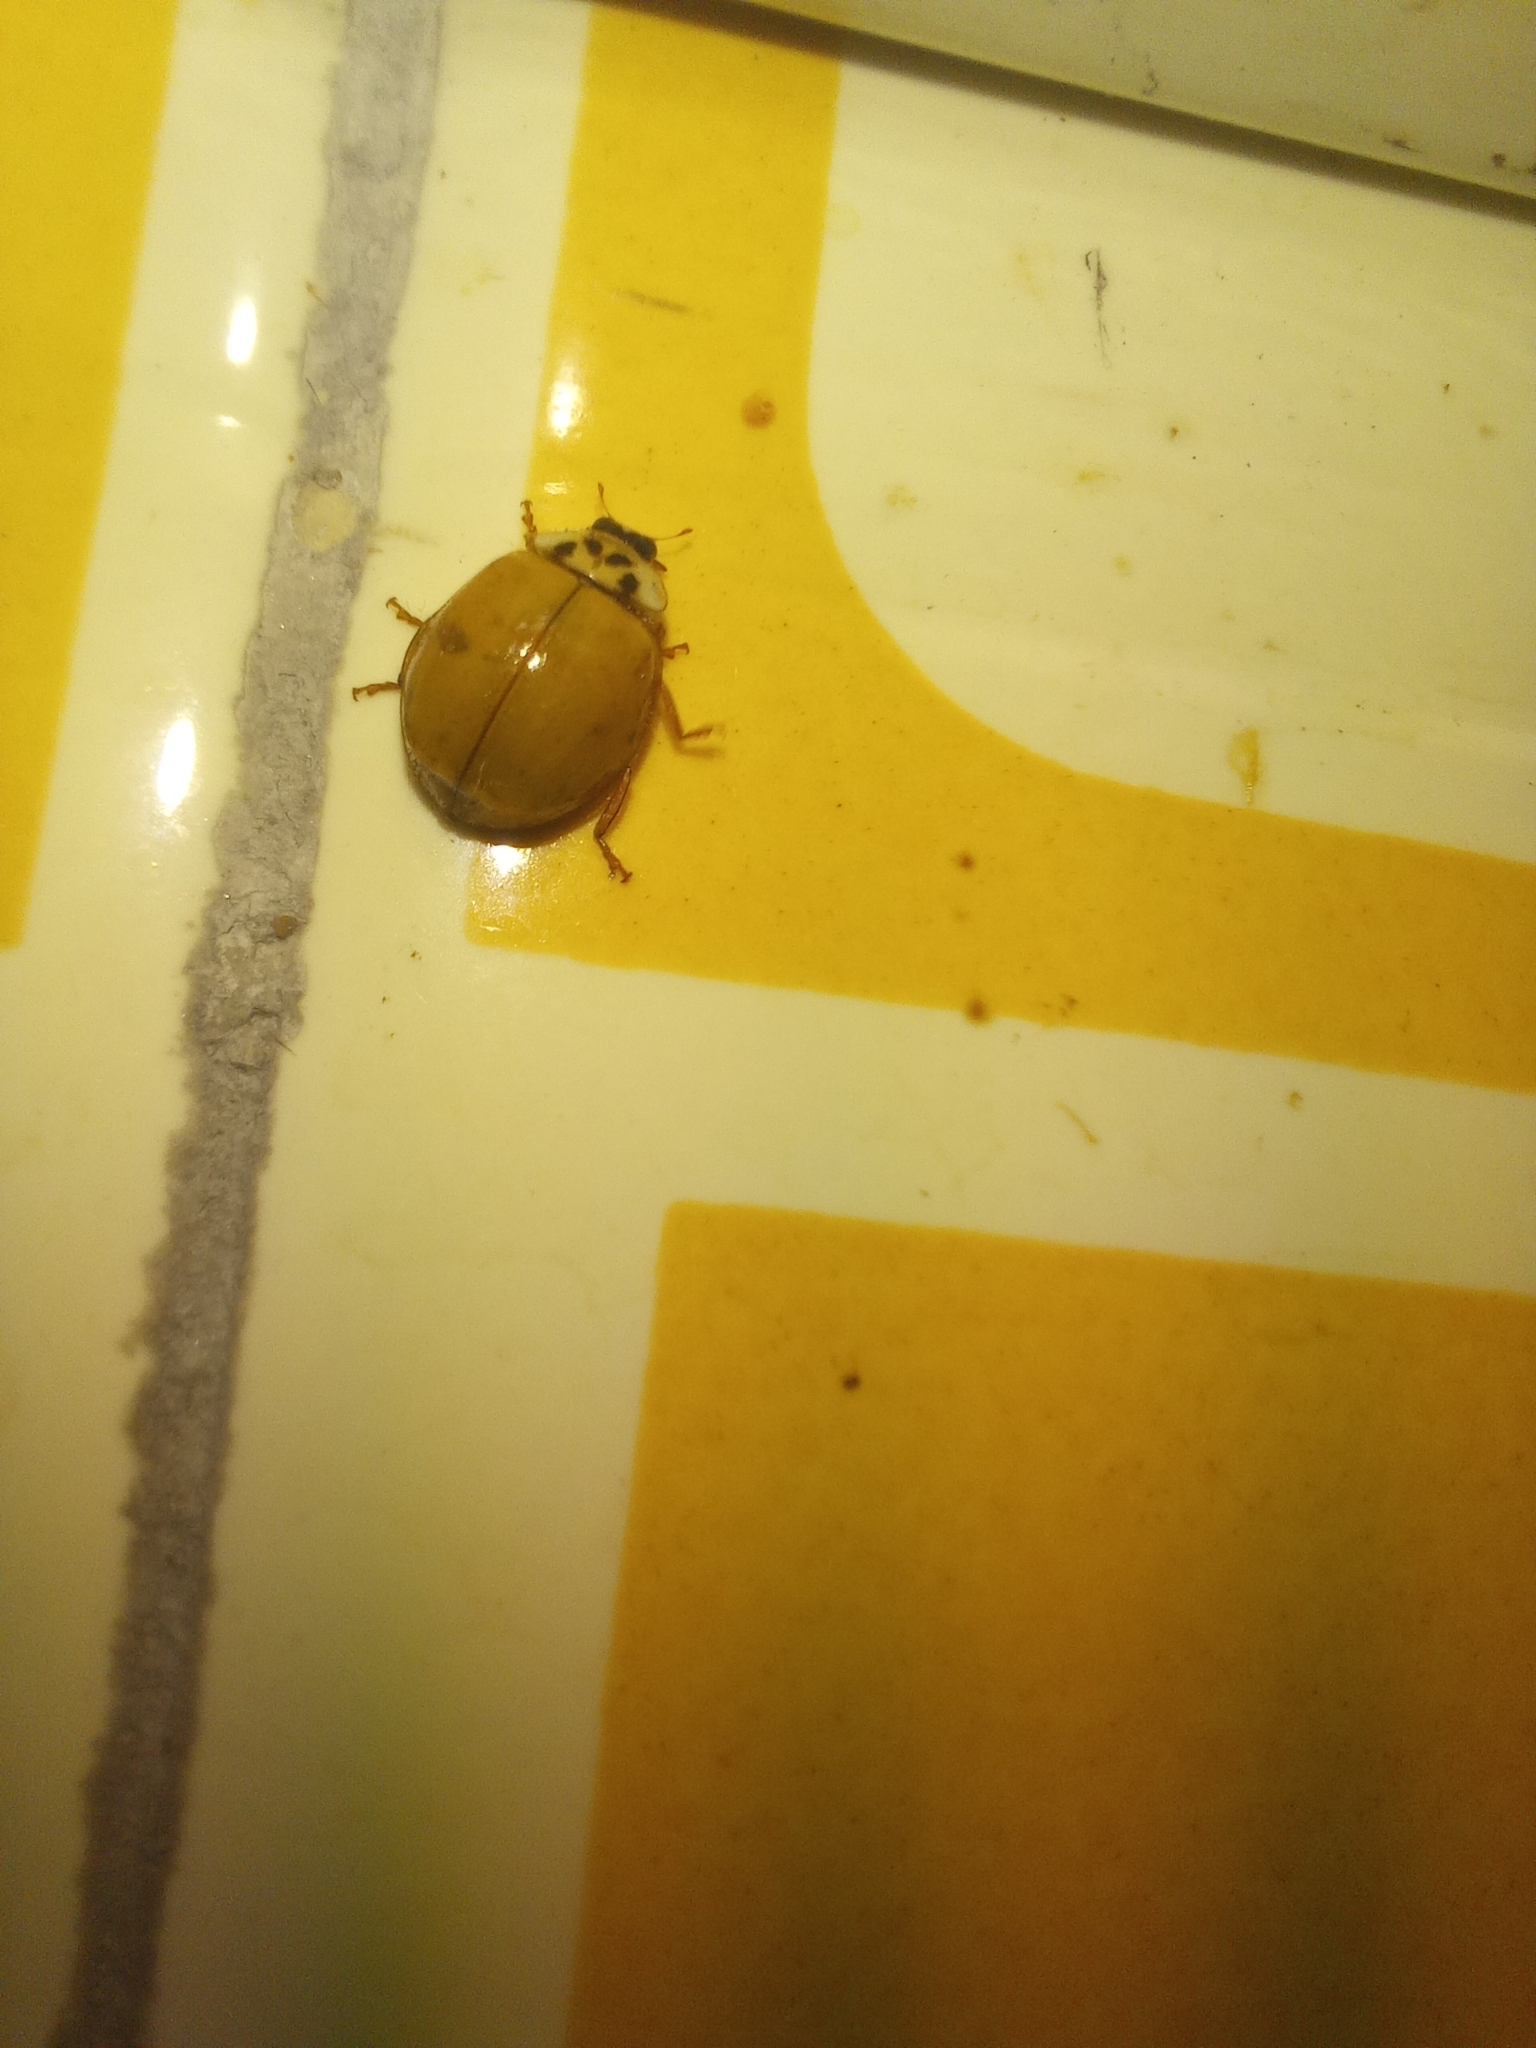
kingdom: Animalia
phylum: Arthropoda
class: Insecta
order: Coleoptera
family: Coccinellidae
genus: Harmonia
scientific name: Harmonia axyridis
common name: Harlequin ladybird
